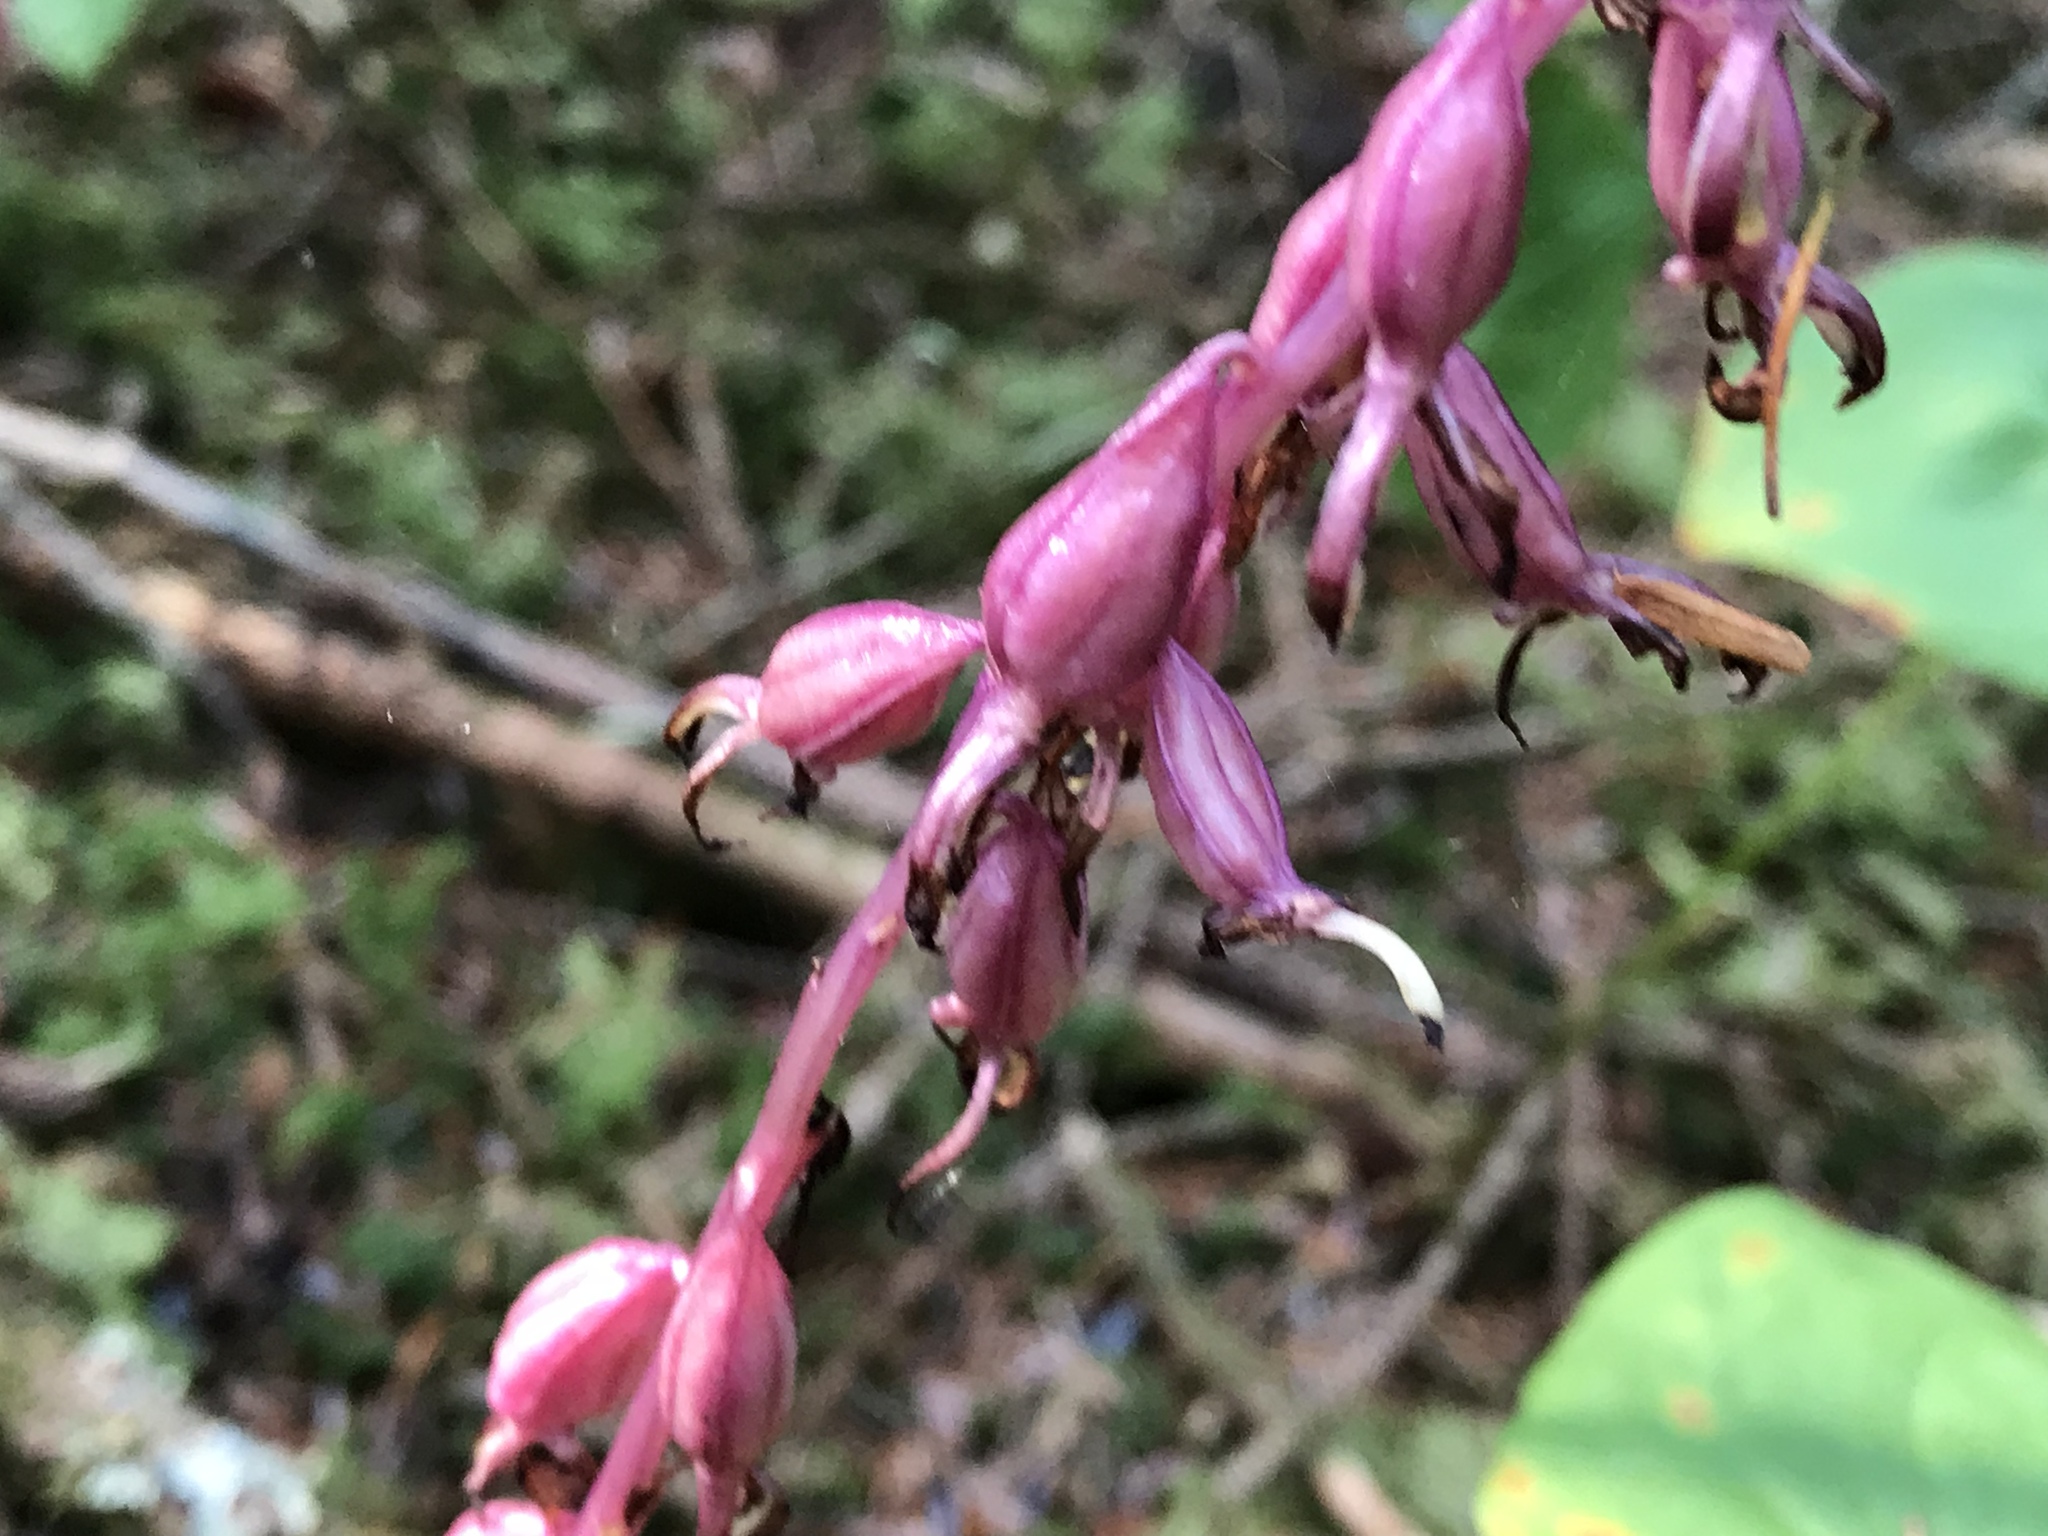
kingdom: Plantae
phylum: Tracheophyta
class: Liliopsida
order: Asparagales
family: Orchidaceae
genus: Corallorhiza
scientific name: Corallorhiza mertensiana
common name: Pacific coralroot
